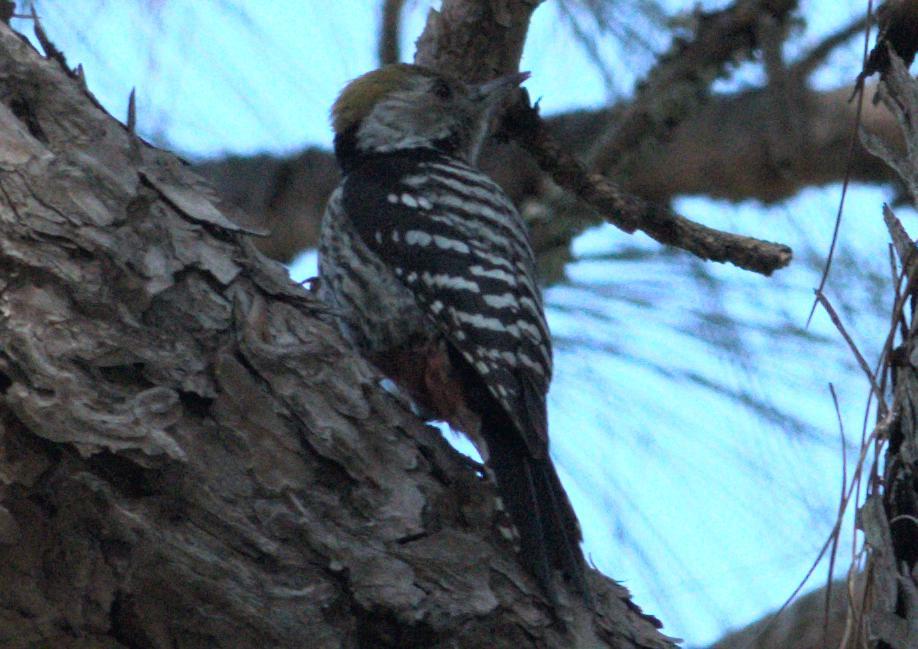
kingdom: Animalia
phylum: Chordata
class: Aves
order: Piciformes
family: Picidae
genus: Dendrocoptes
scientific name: Dendrocoptes auriceps
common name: Brown-fronted woodpecker
